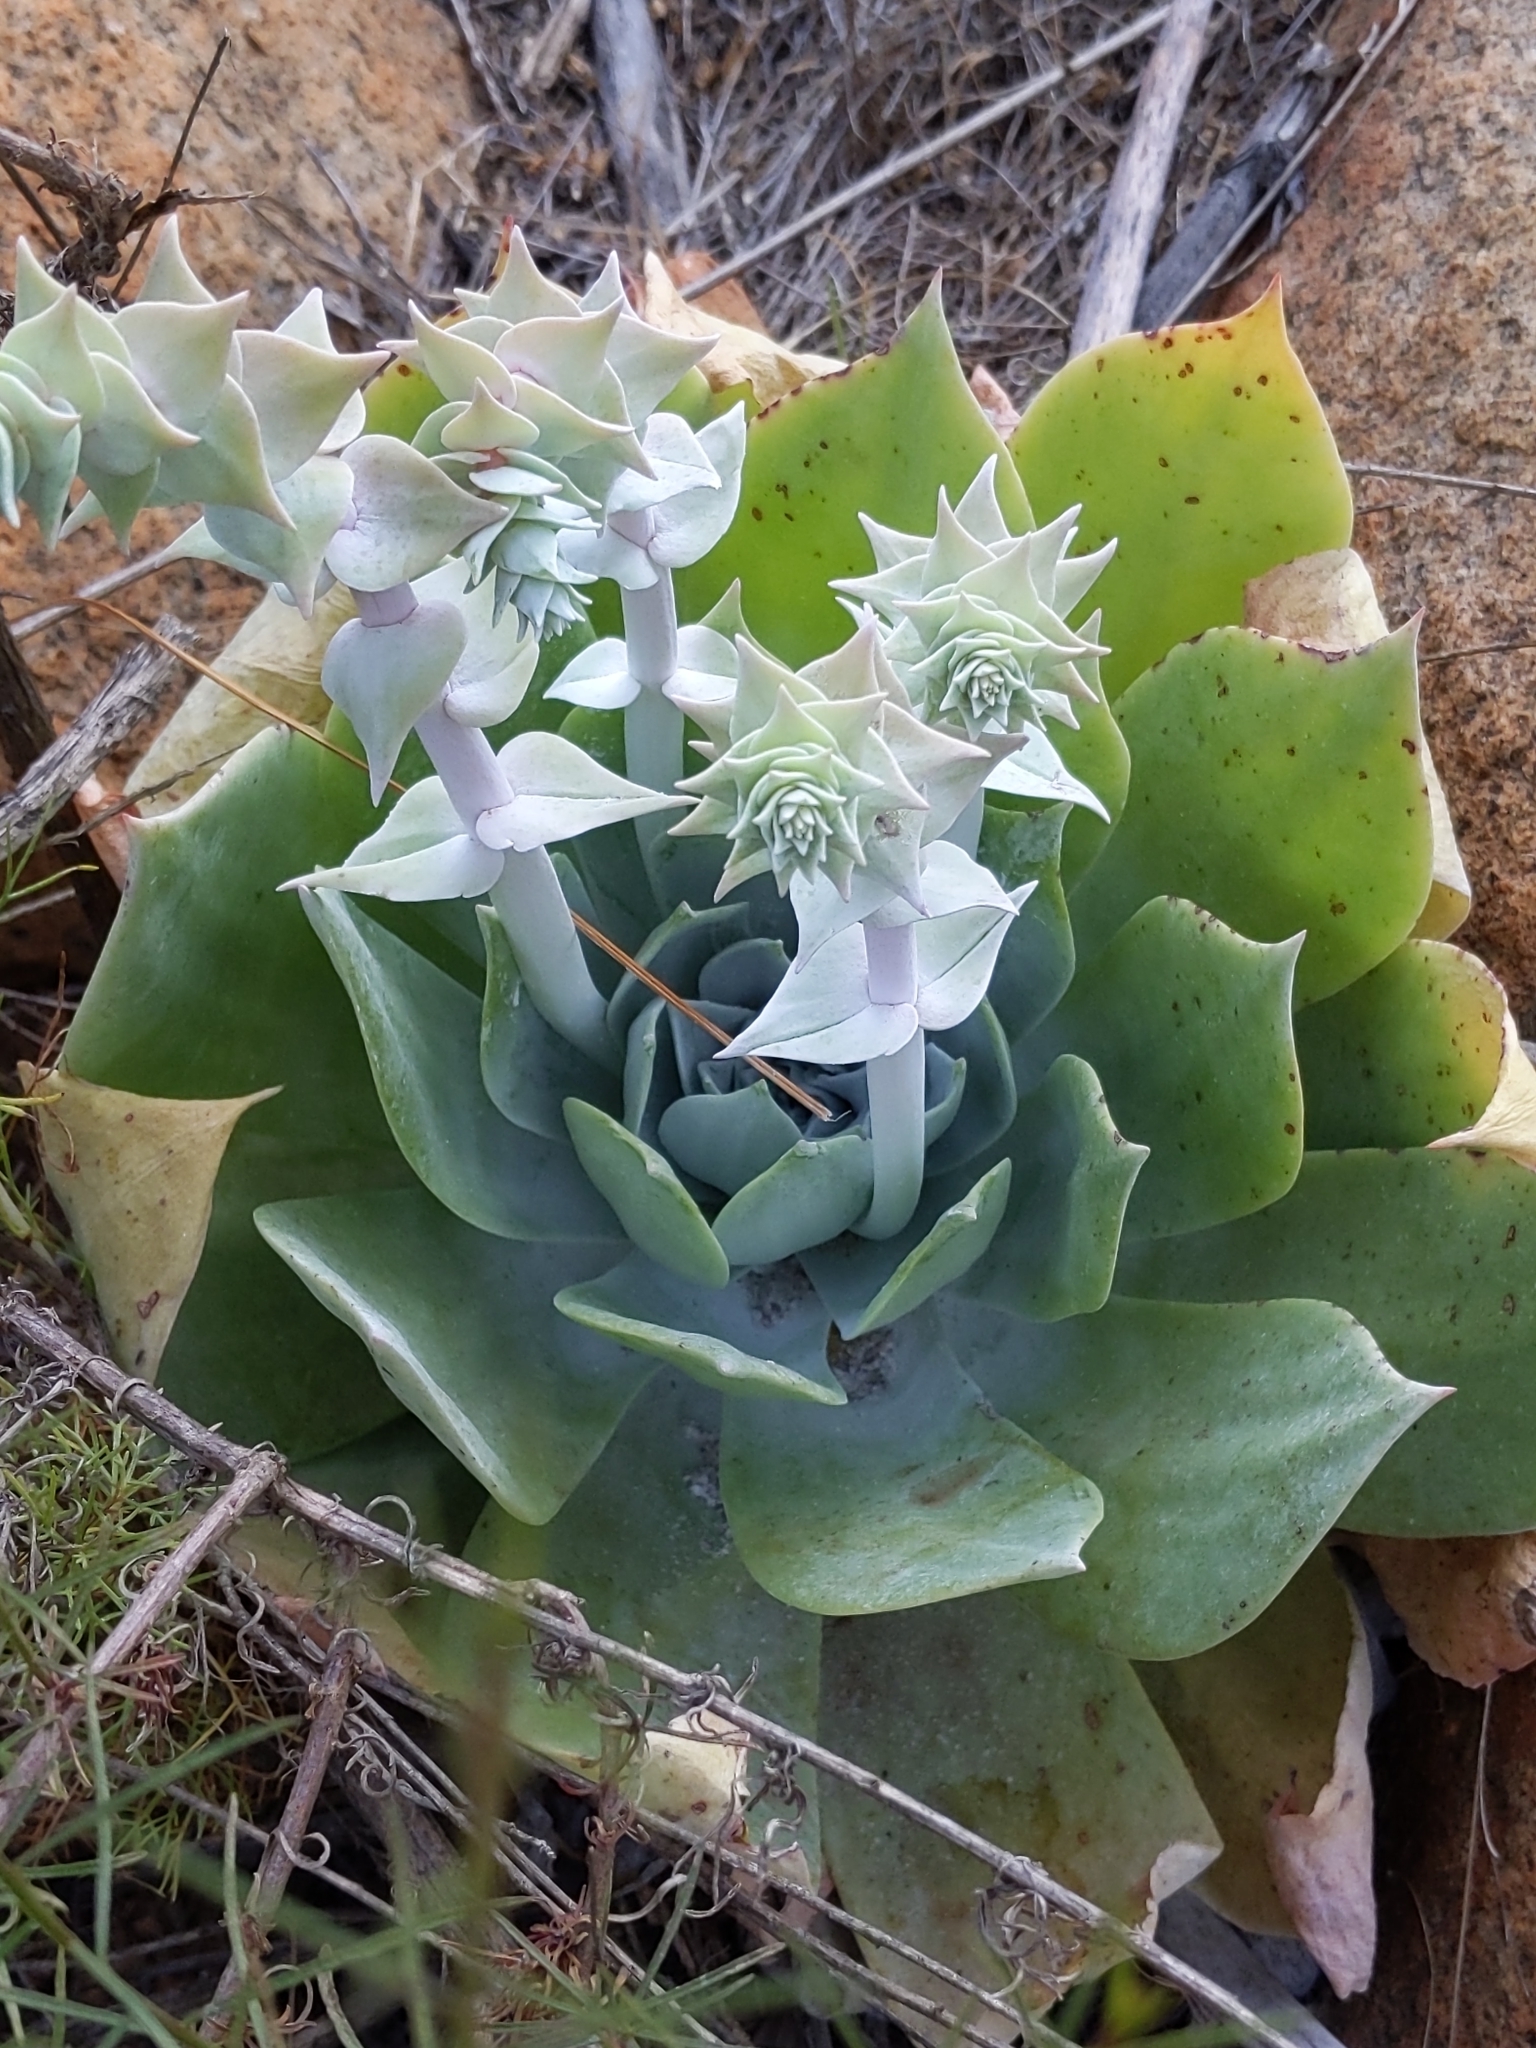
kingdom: Plantae
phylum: Tracheophyta
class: Magnoliopsida
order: Saxifragales
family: Crassulaceae
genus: Dudleya
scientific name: Dudleya pulverulenta
